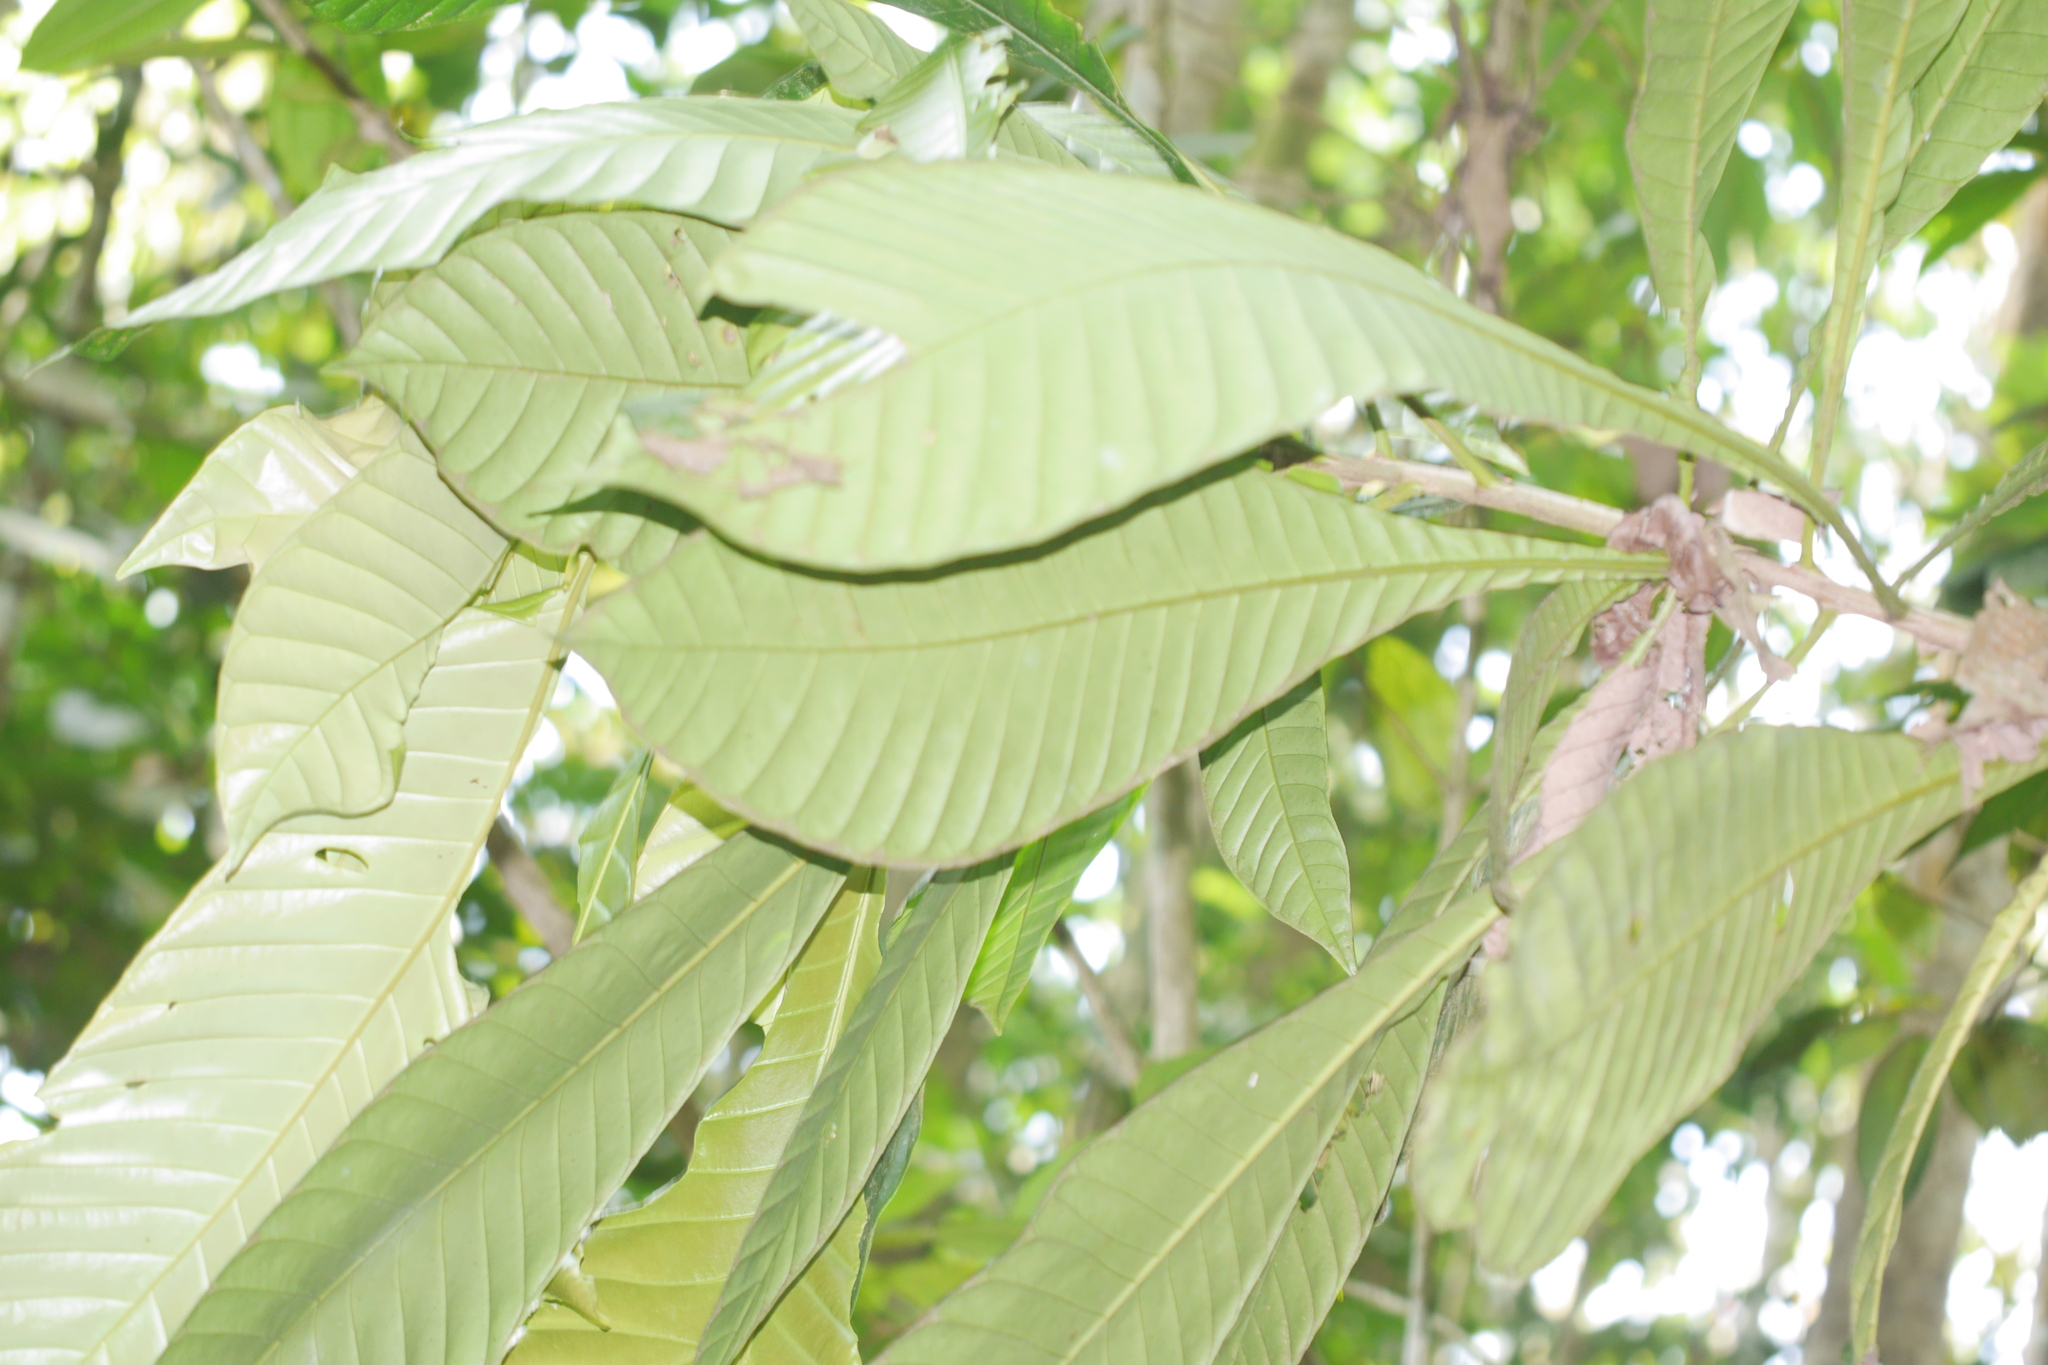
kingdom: Plantae
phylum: Tracheophyta
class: Magnoliopsida
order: Ericales
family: Lecythidaceae
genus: Grias
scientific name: Grias peruviana
